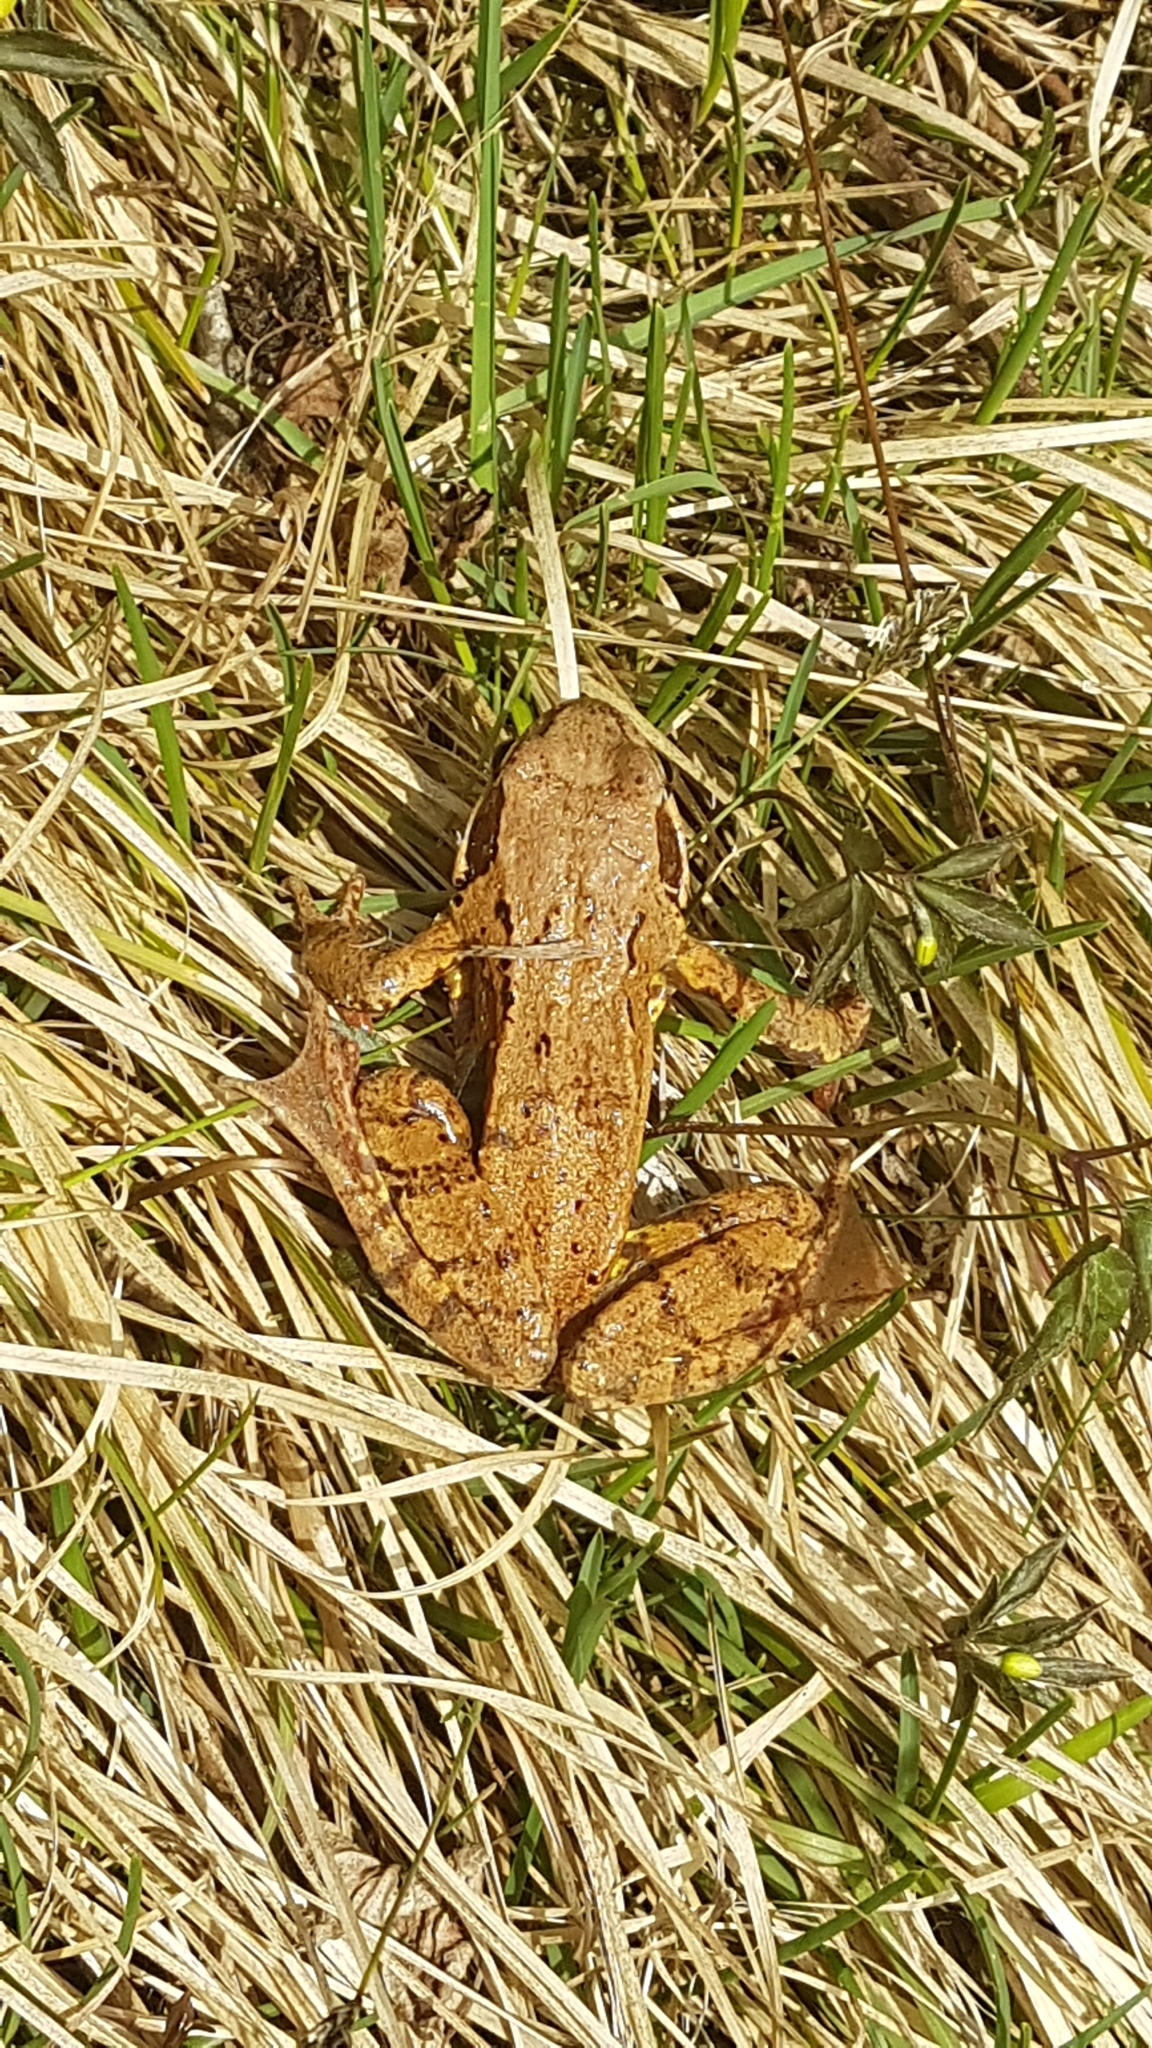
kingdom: Animalia
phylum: Chordata
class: Amphibia
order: Anura
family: Ranidae
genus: Rana
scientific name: Rana temporaria
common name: Common frog
